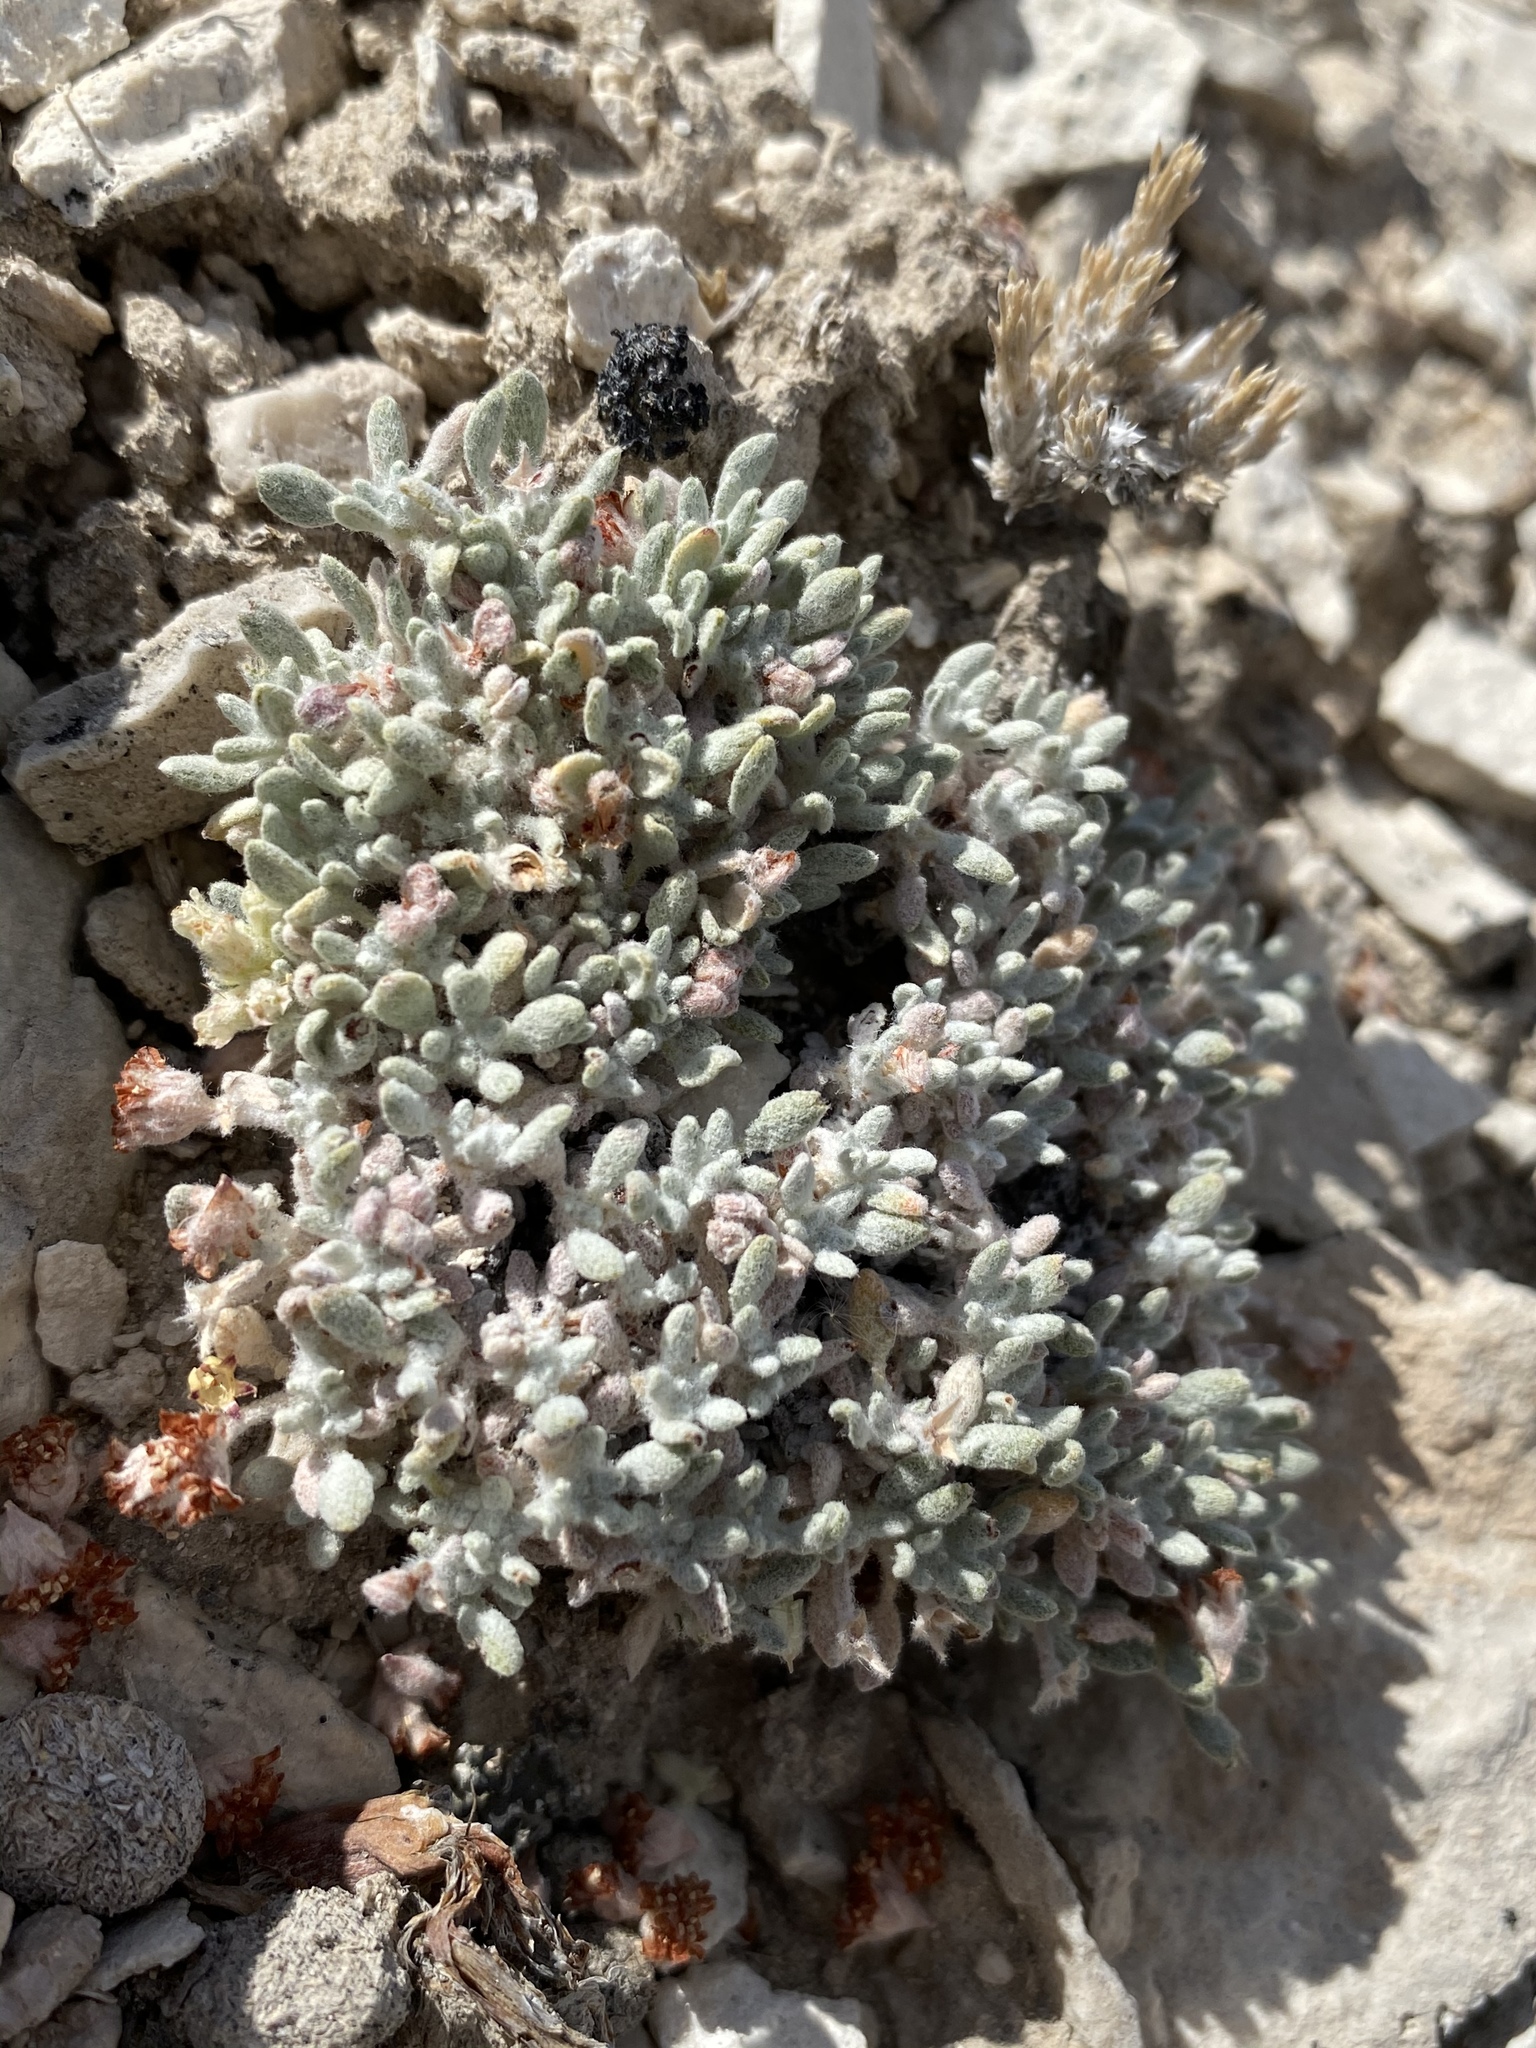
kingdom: Plantae
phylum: Tracheophyta
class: Magnoliopsida
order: Caryophyllales
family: Polygonaceae
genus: Eriogonum
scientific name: Eriogonum shockleyi
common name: Shockley's wild buckwheat
